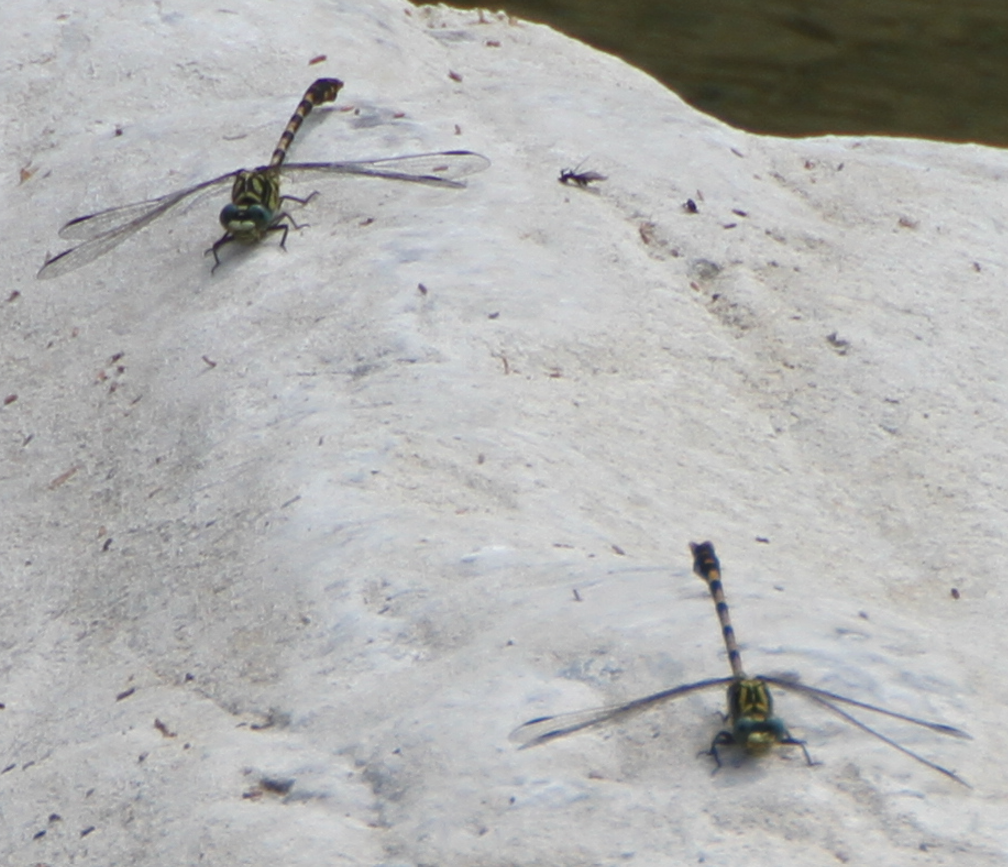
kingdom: Animalia
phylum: Arthropoda
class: Insecta
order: Odonata
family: Gomphidae
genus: Onychogomphus
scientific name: Onychogomphus uncatus
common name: Large pincertail
